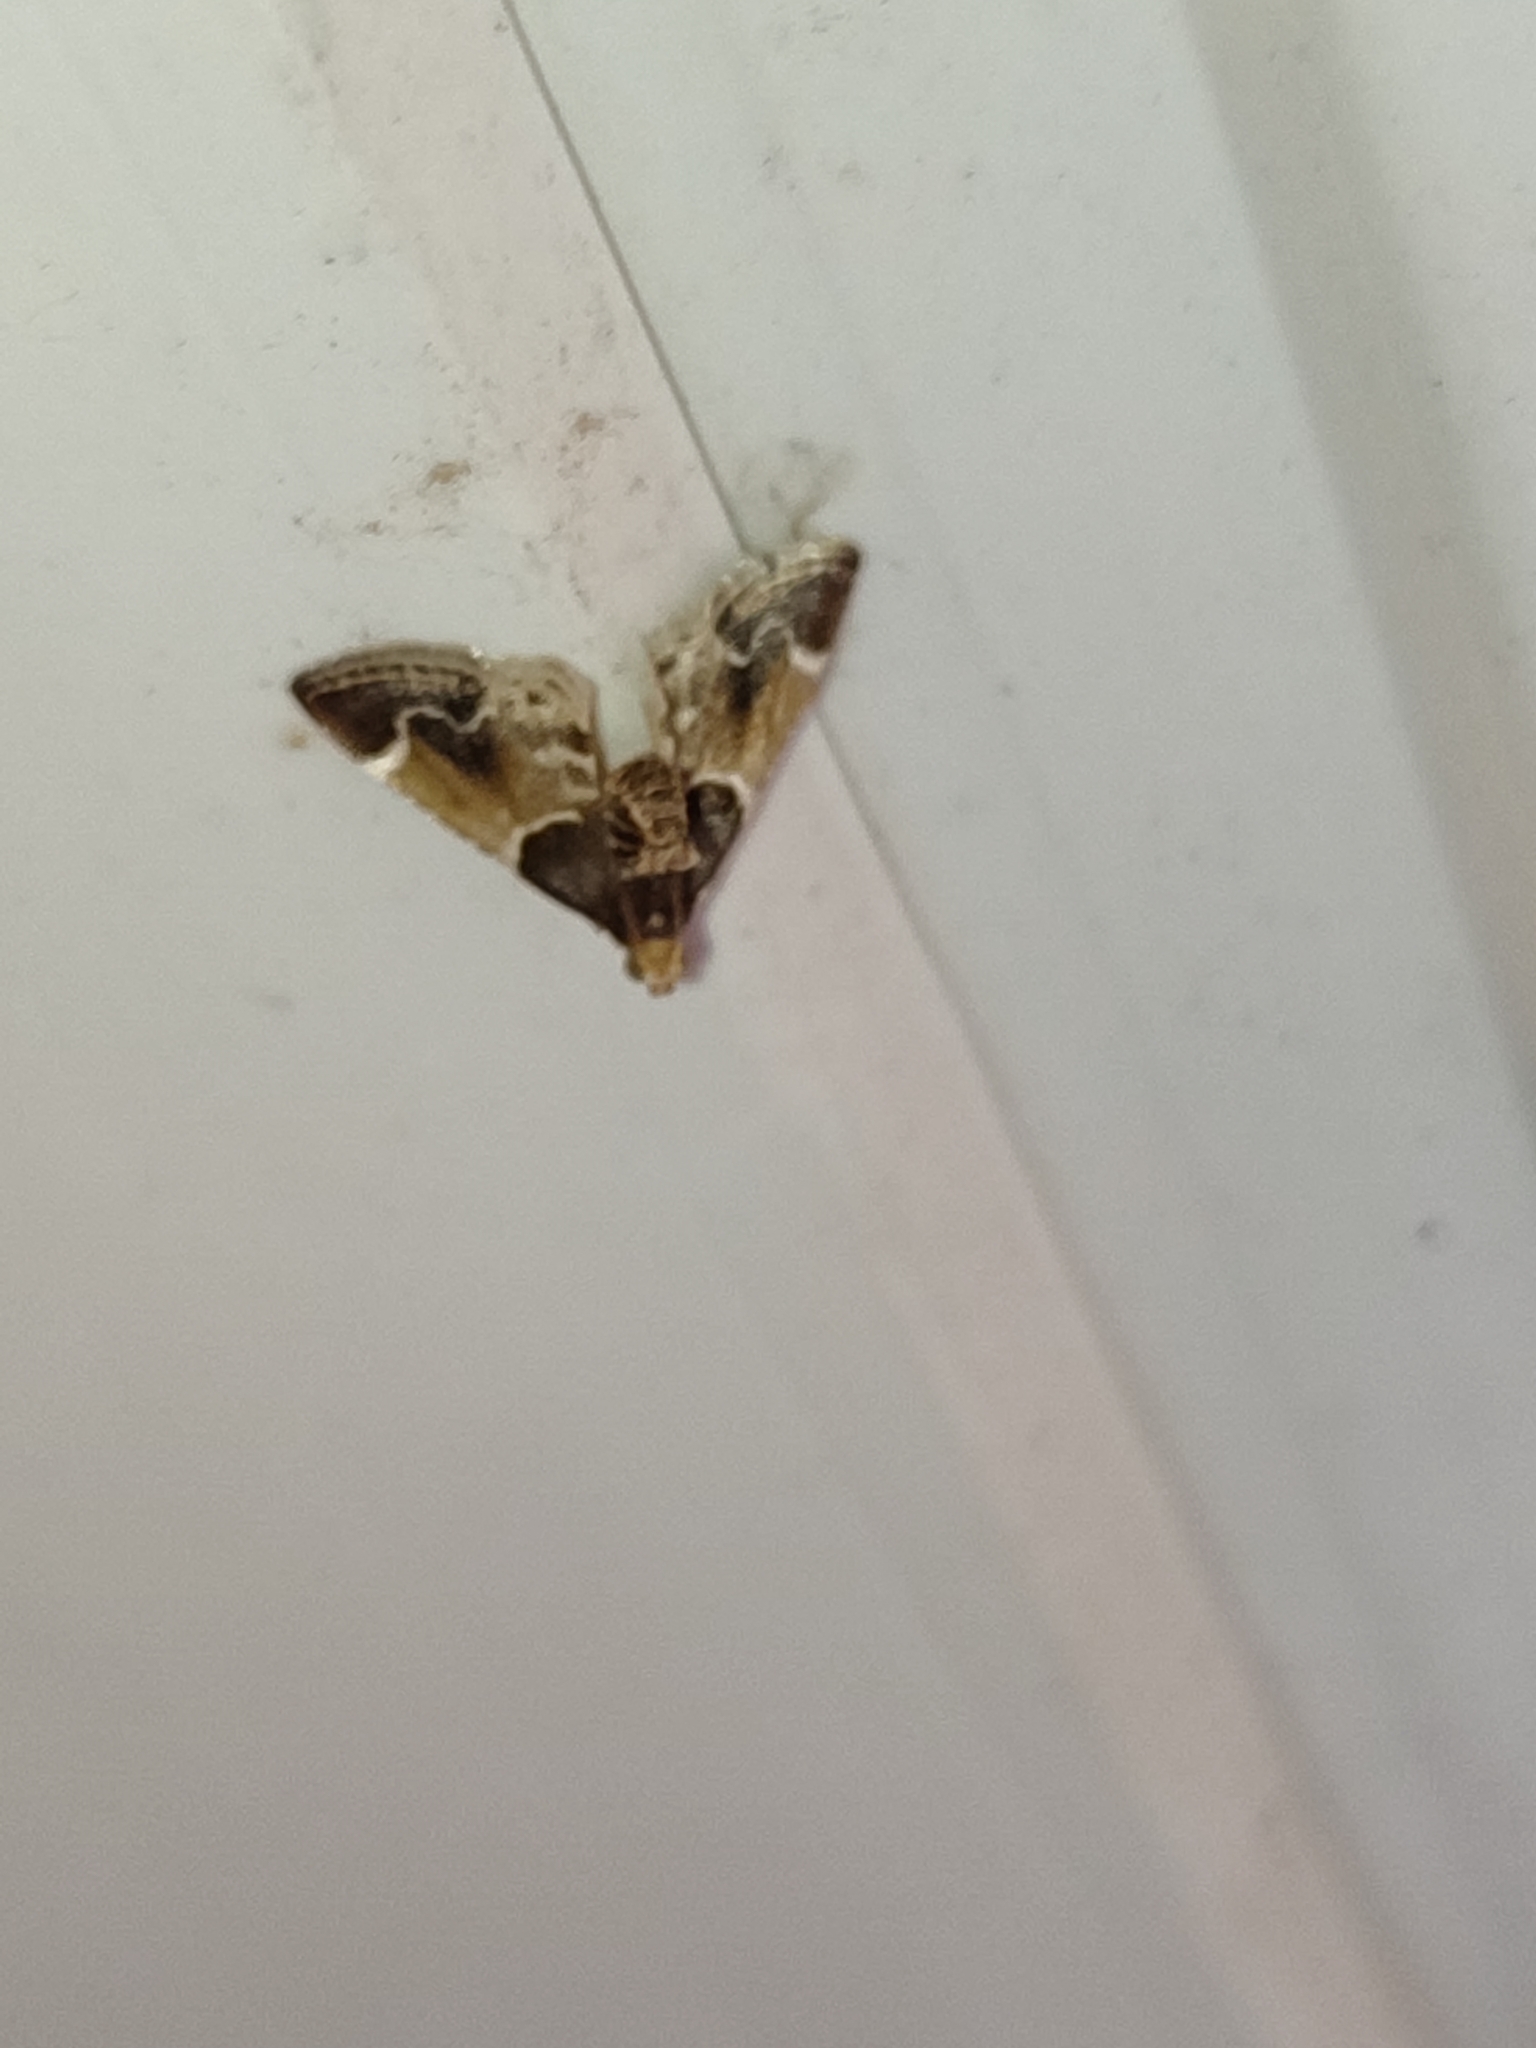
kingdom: Animalia
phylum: Arthropoda
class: Insecta
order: Lepidoptera
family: Pyralidae
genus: Pyralis
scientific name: Pyralis farinalis
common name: Meal moth
